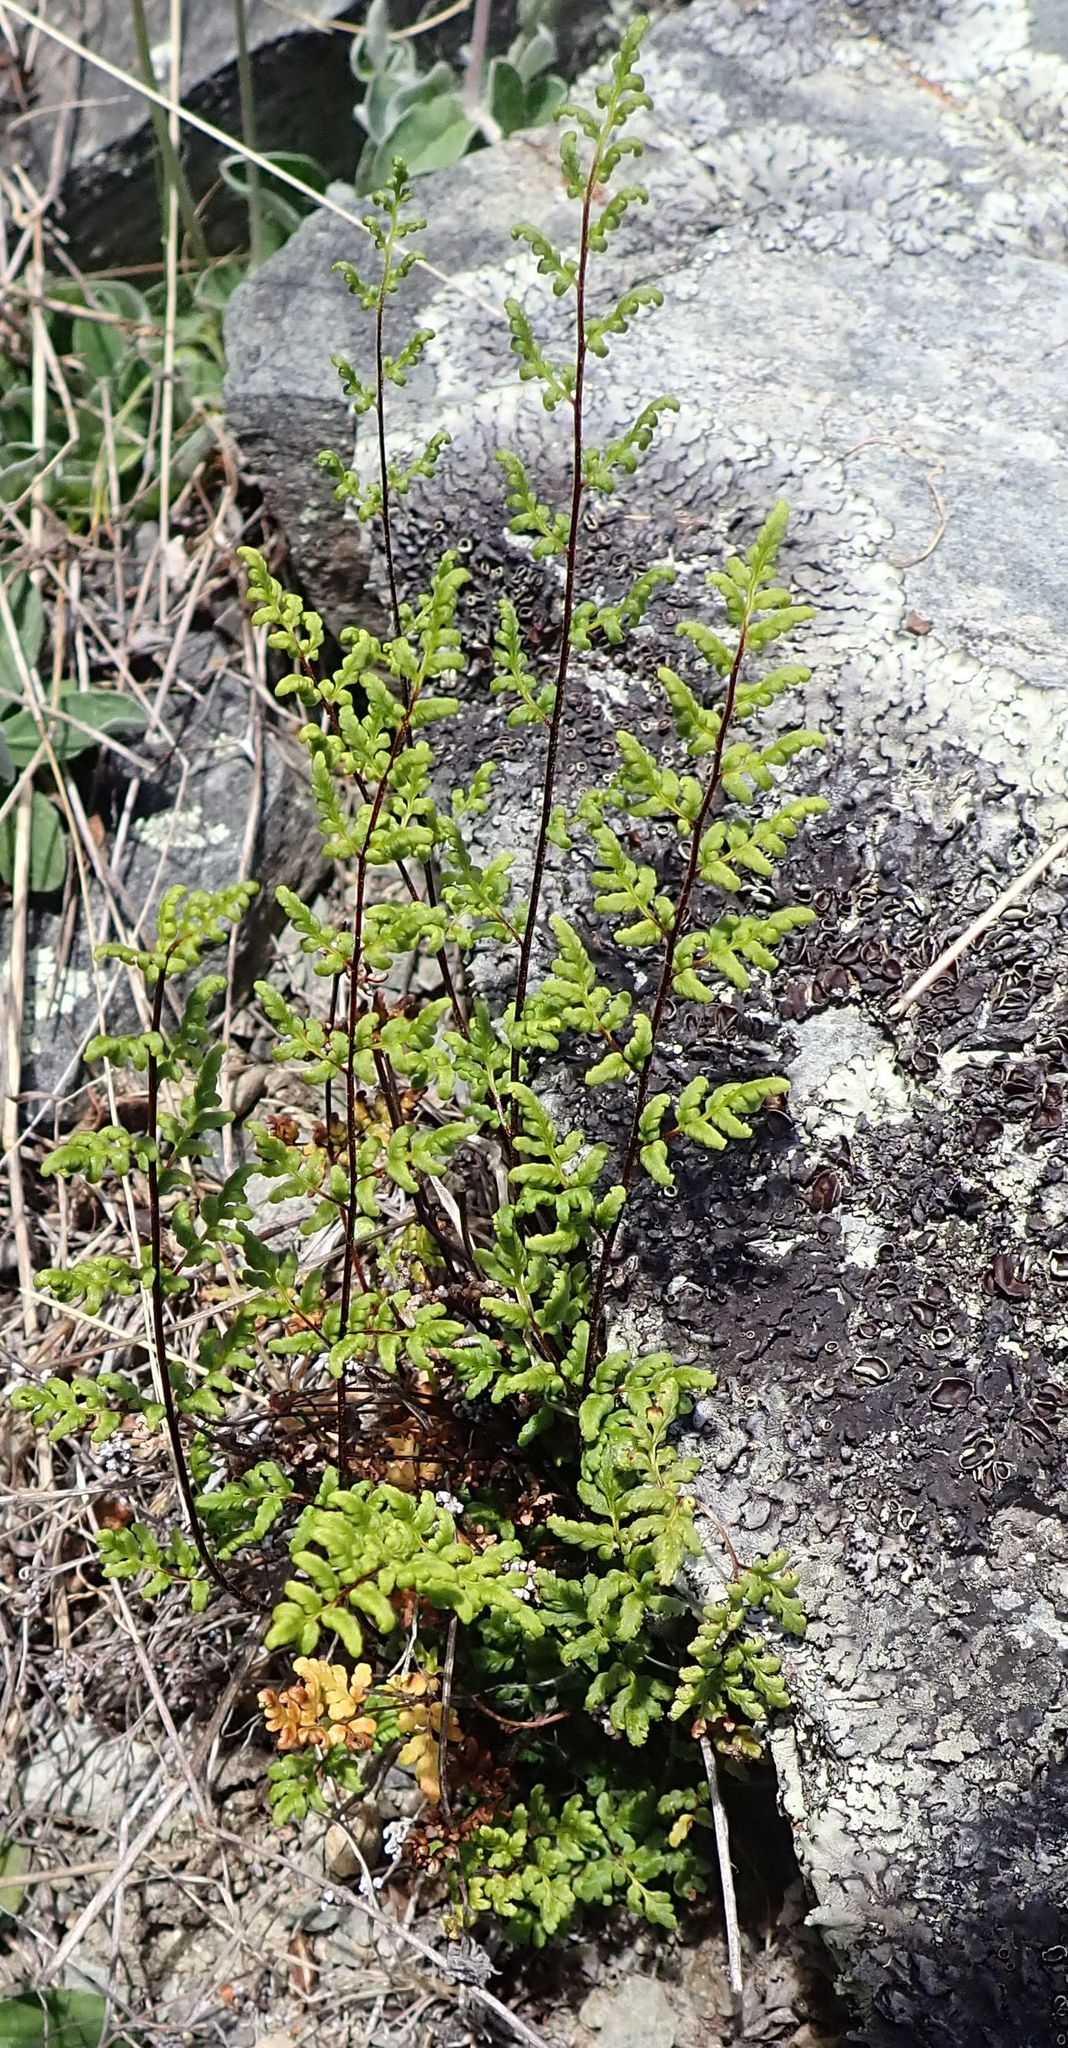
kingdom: Plantae
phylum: Tracheophyta
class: Polypodiopsida
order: Polypodiales
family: Pteridaceae
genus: Cheilanthes
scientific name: Cheilanthes sieberi
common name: Mulga fern
